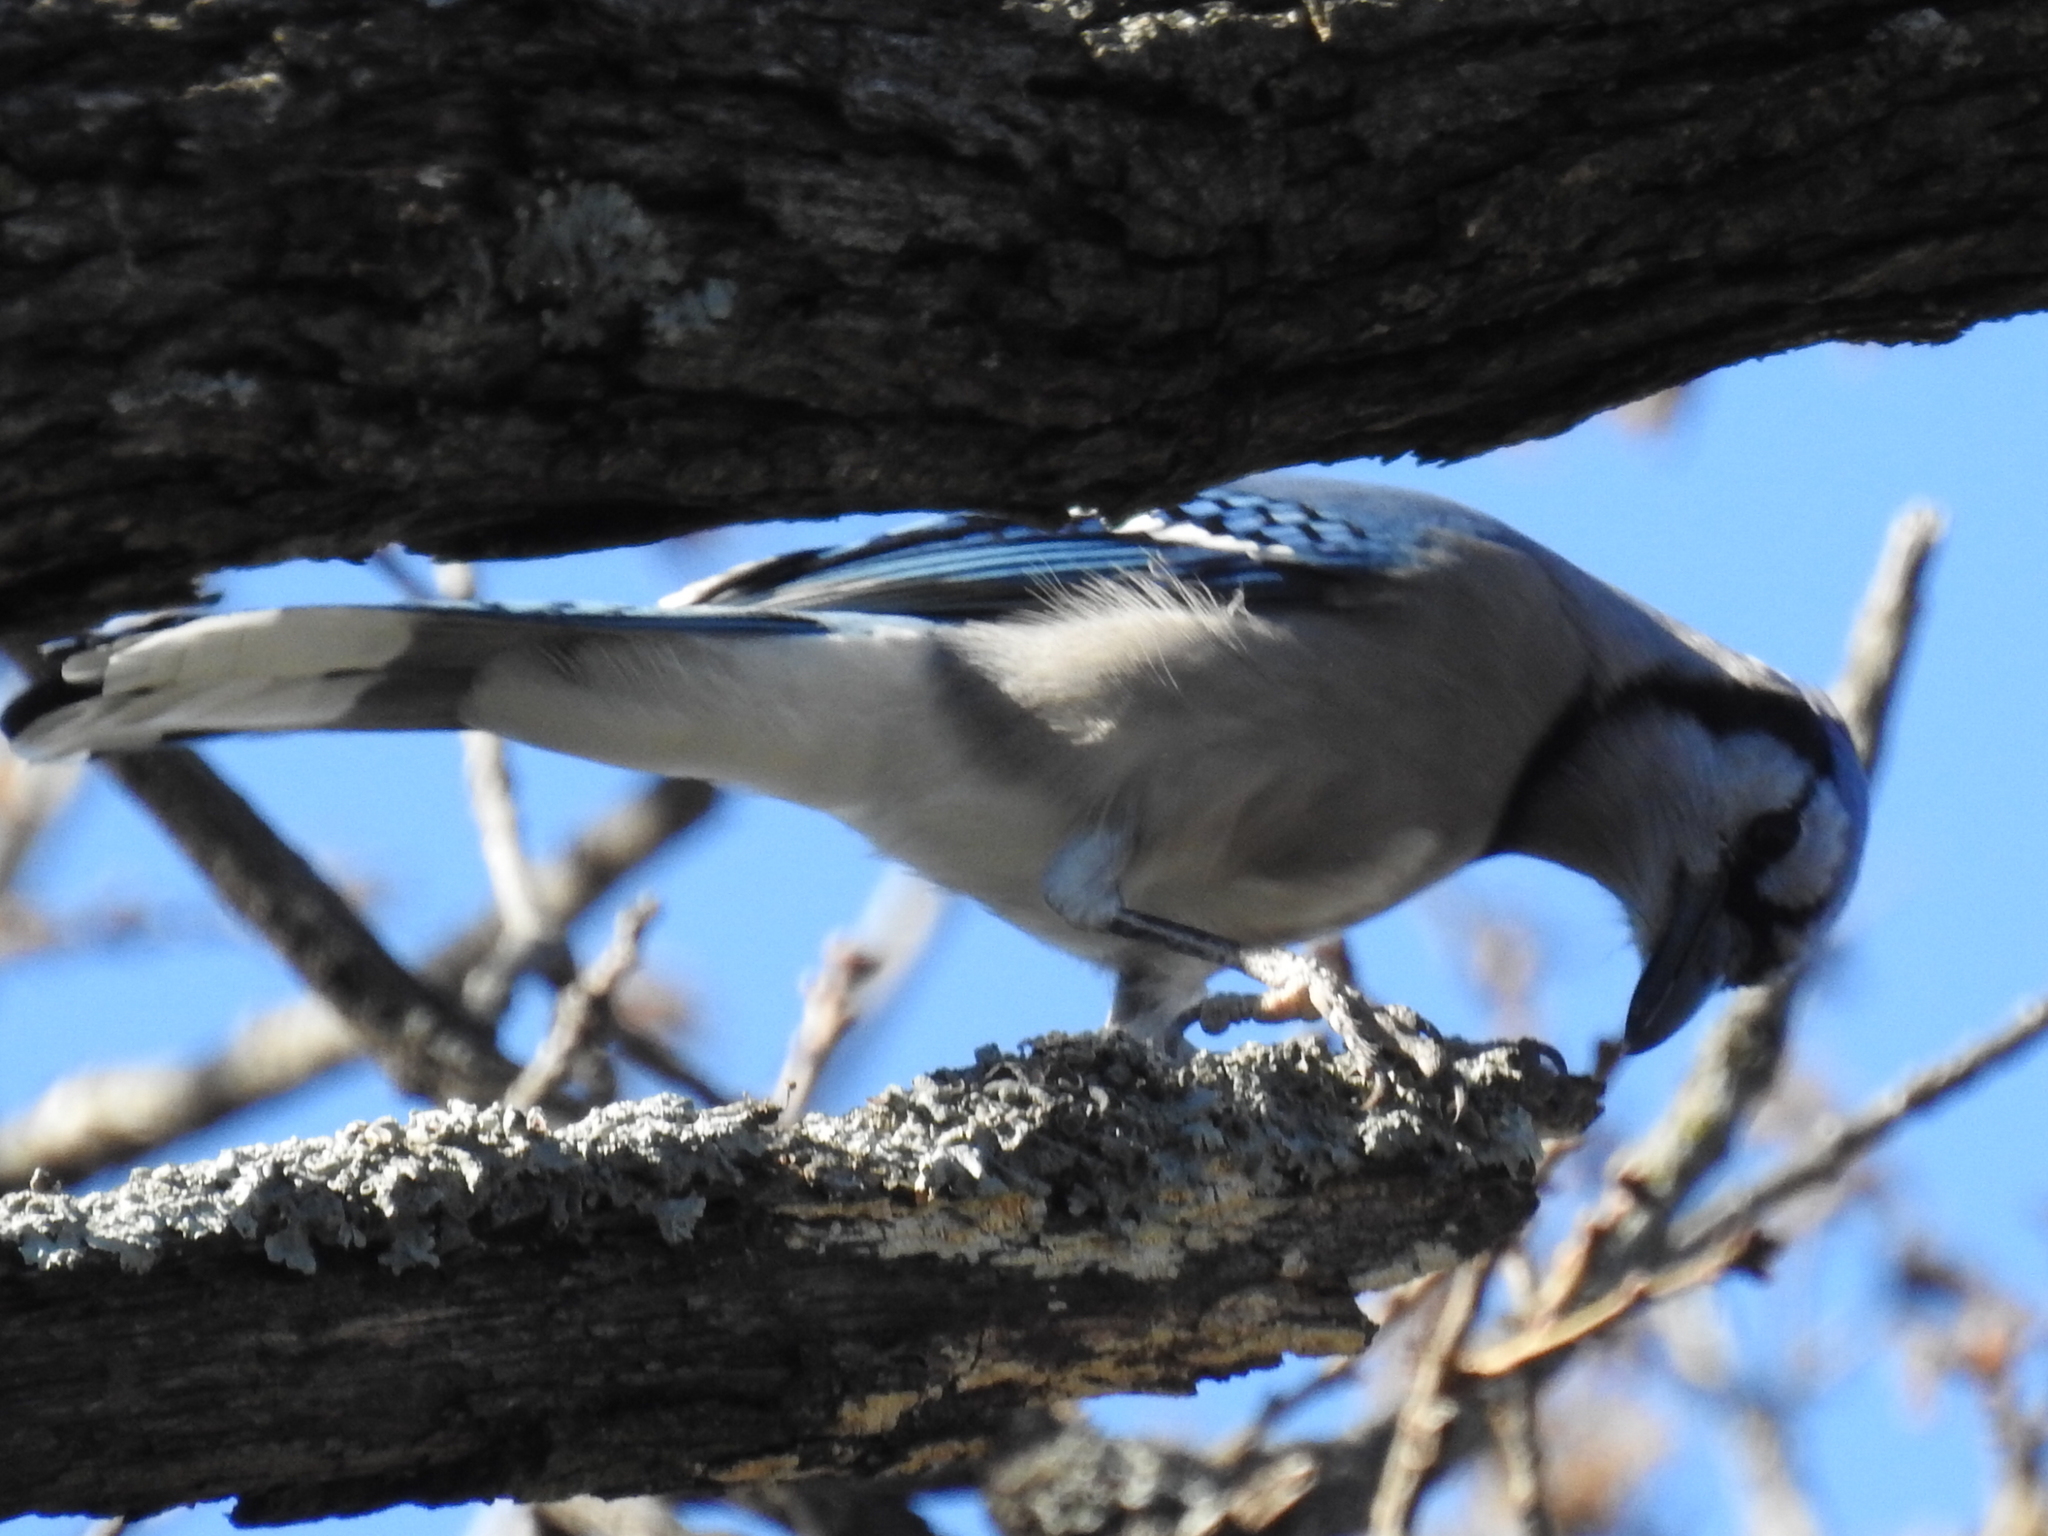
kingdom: Animalia
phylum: Chordata
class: Aves
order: Passeriformes
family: Corvidae
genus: Cyanocitta
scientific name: Cyanocitta cristata
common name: Blue jay
